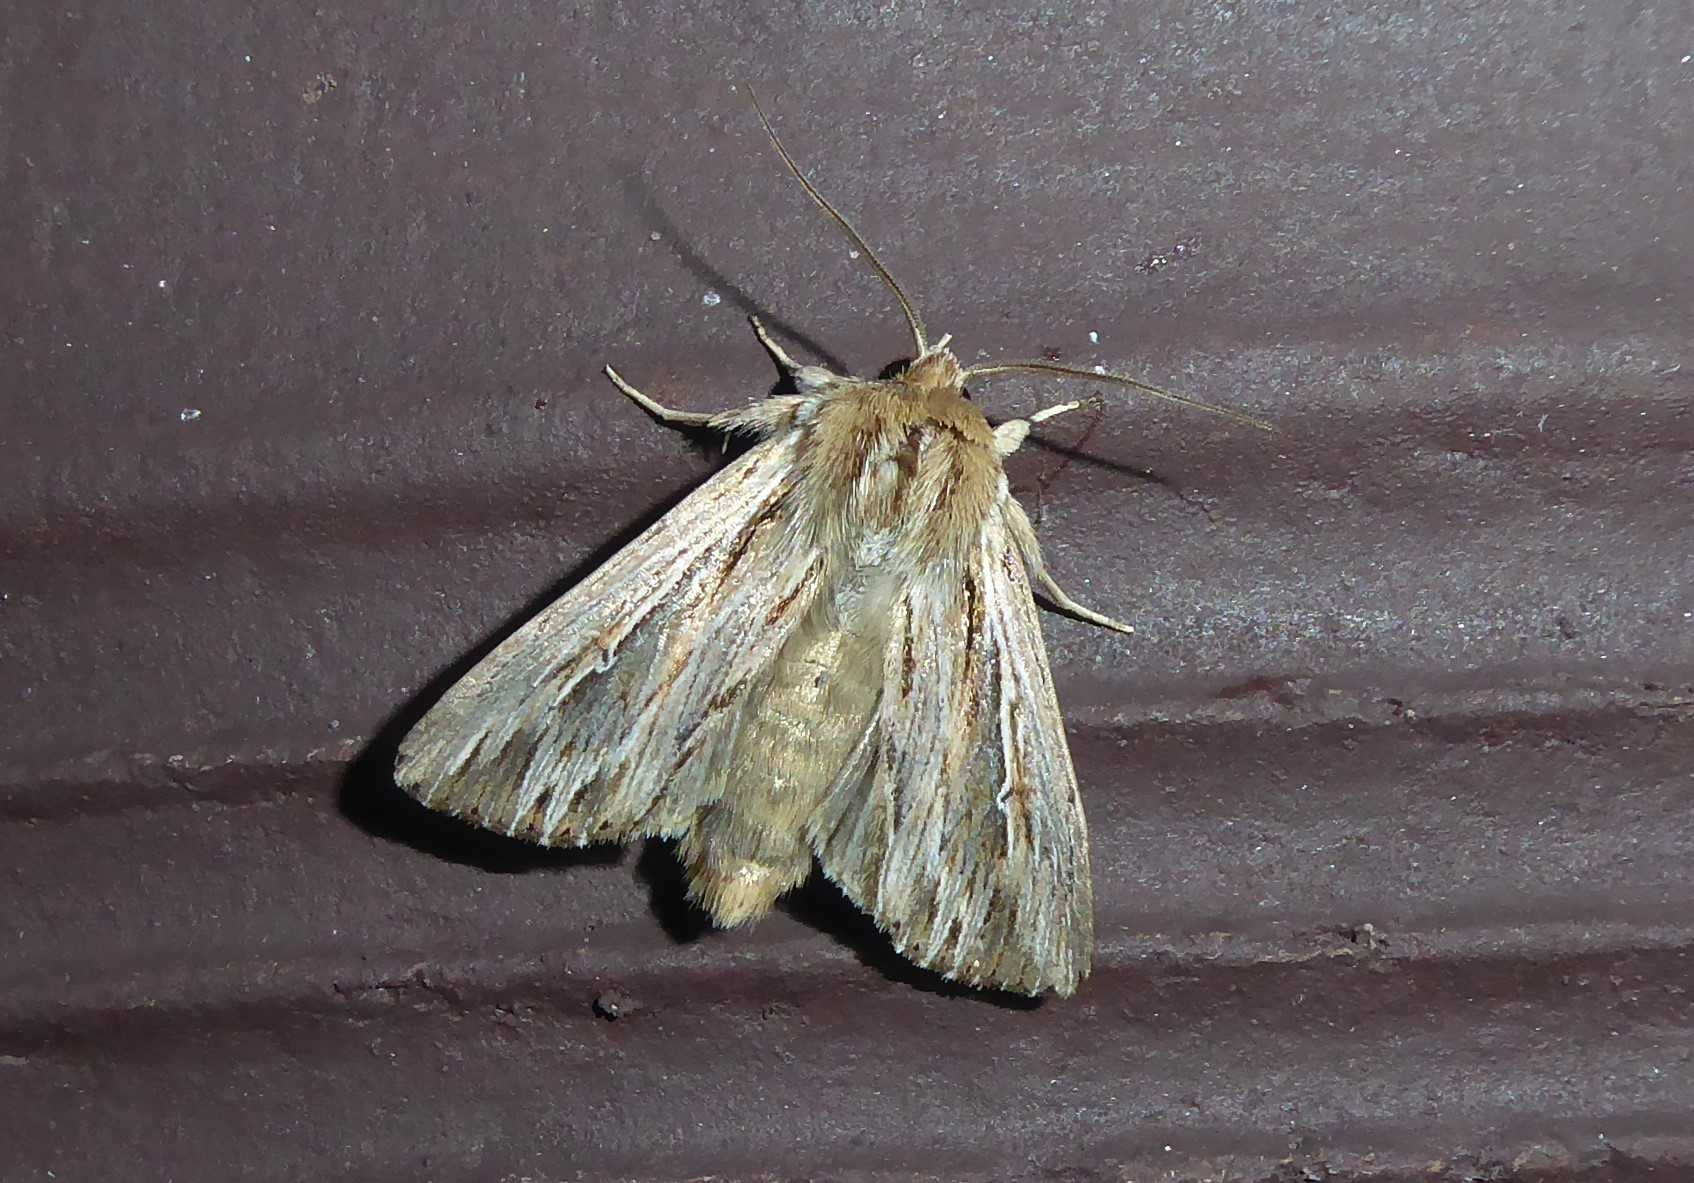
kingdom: Animalia
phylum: Arthropoda
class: Insecta
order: Lepidoptera
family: Noctuidae
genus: Persectania
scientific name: Persectania aversa
